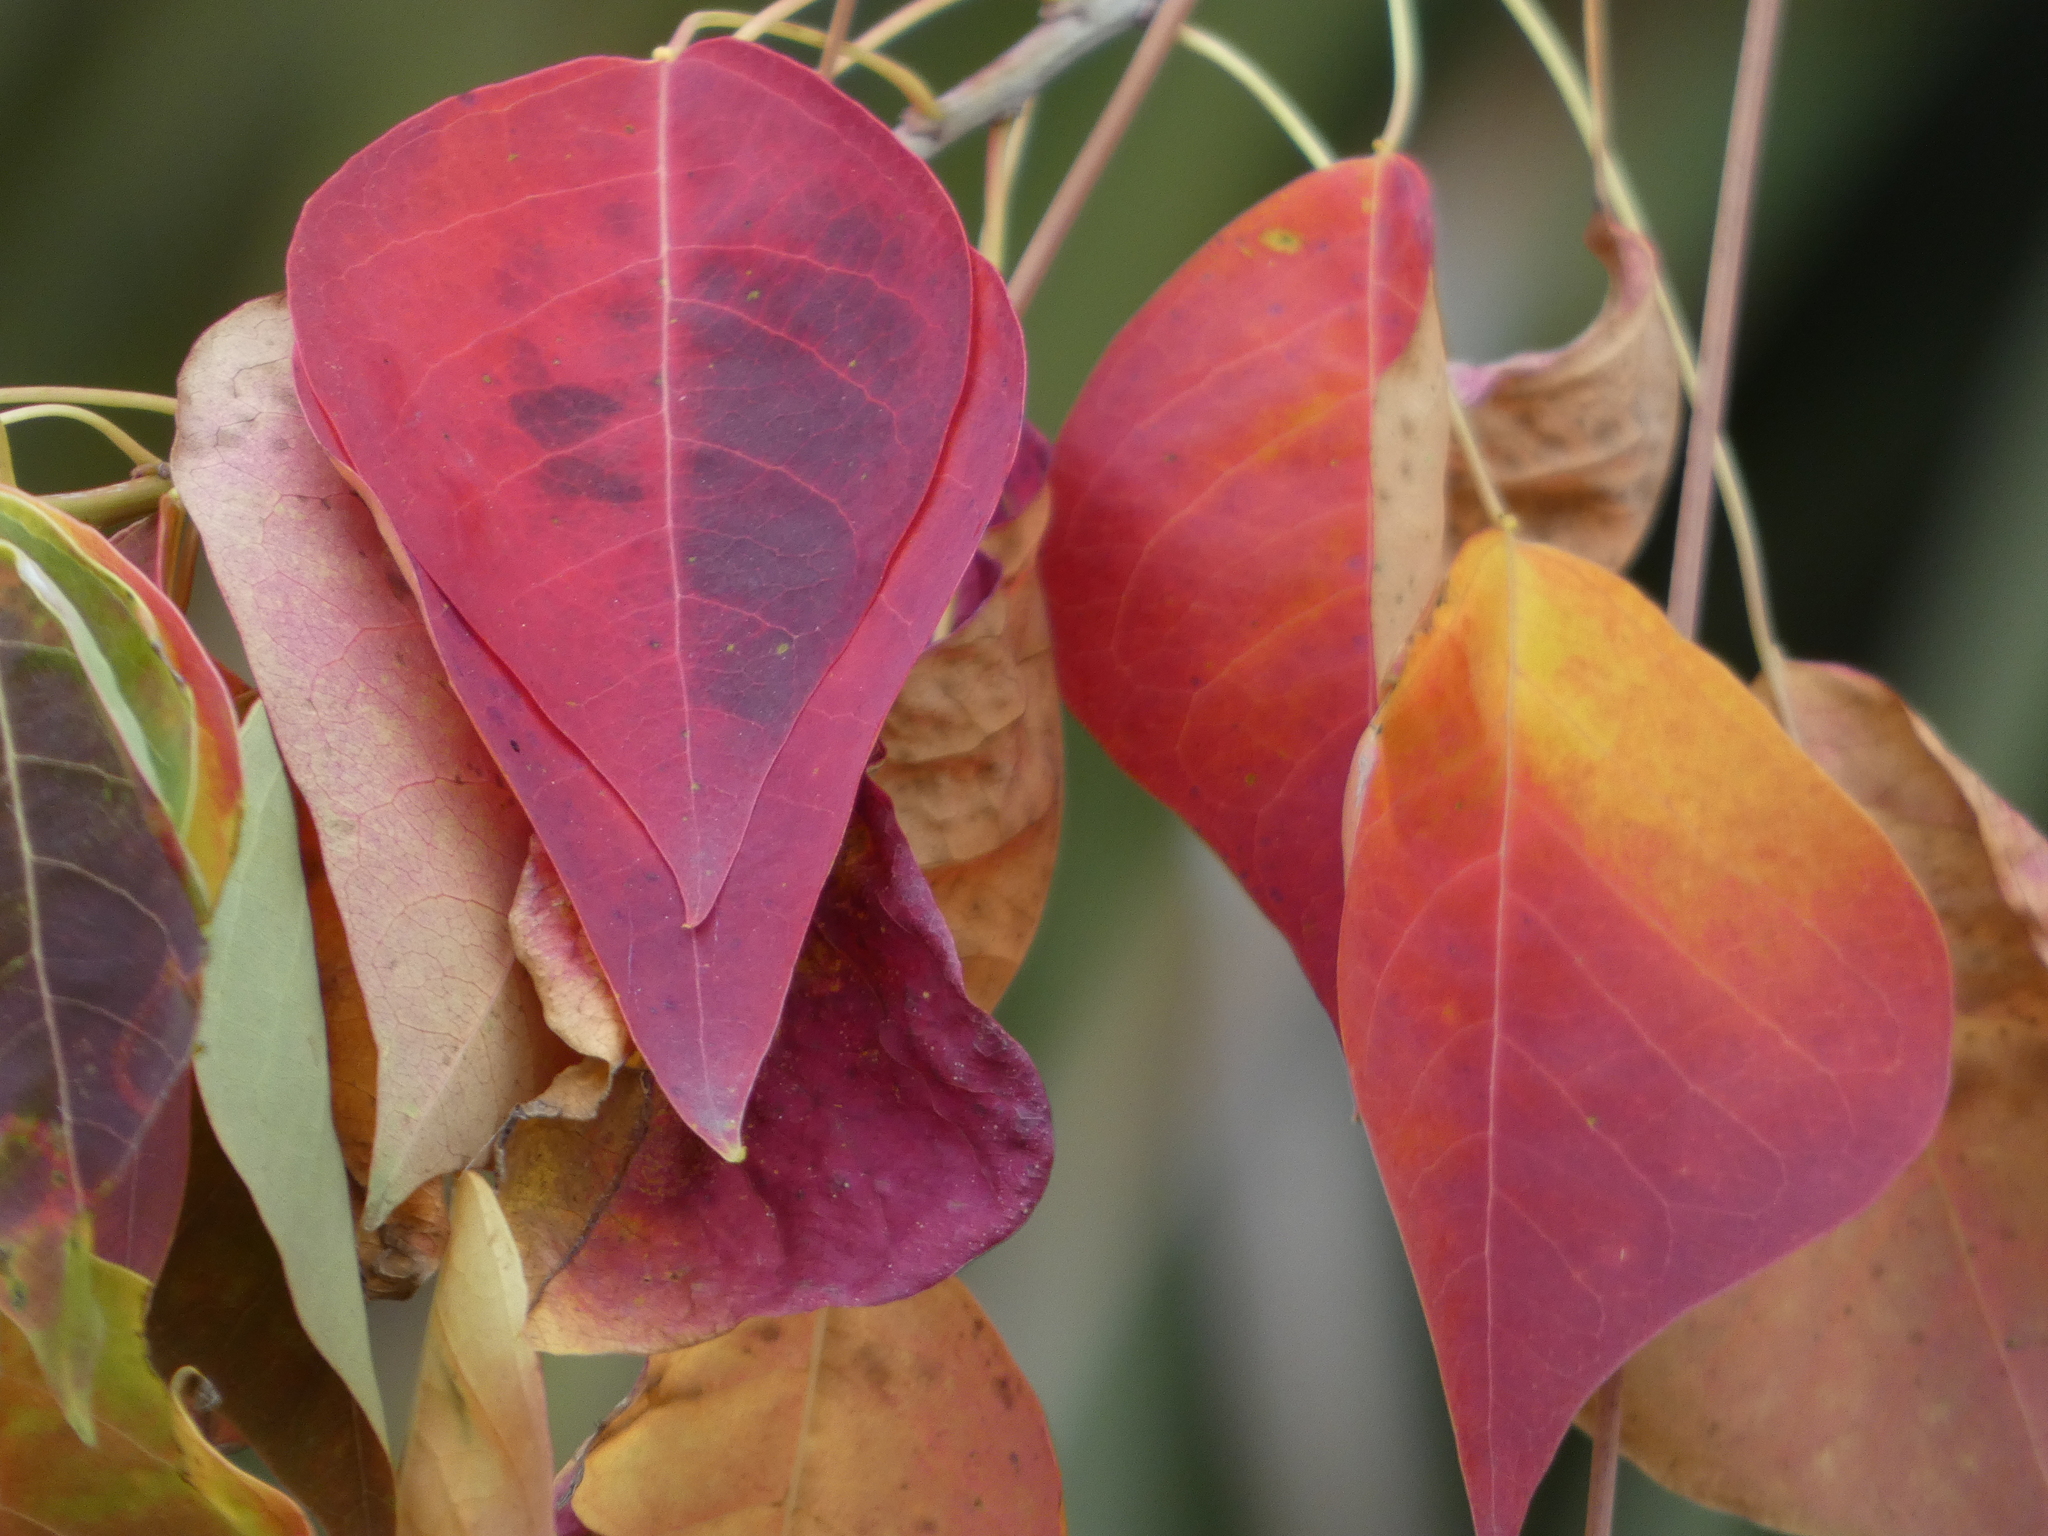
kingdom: Plantae
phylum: Tracheophyta
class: Magnoliopsida
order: Malpighiales
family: Euphorbiaceae
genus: Triadica
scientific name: Triadica sebifera
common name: Chinese tallow
